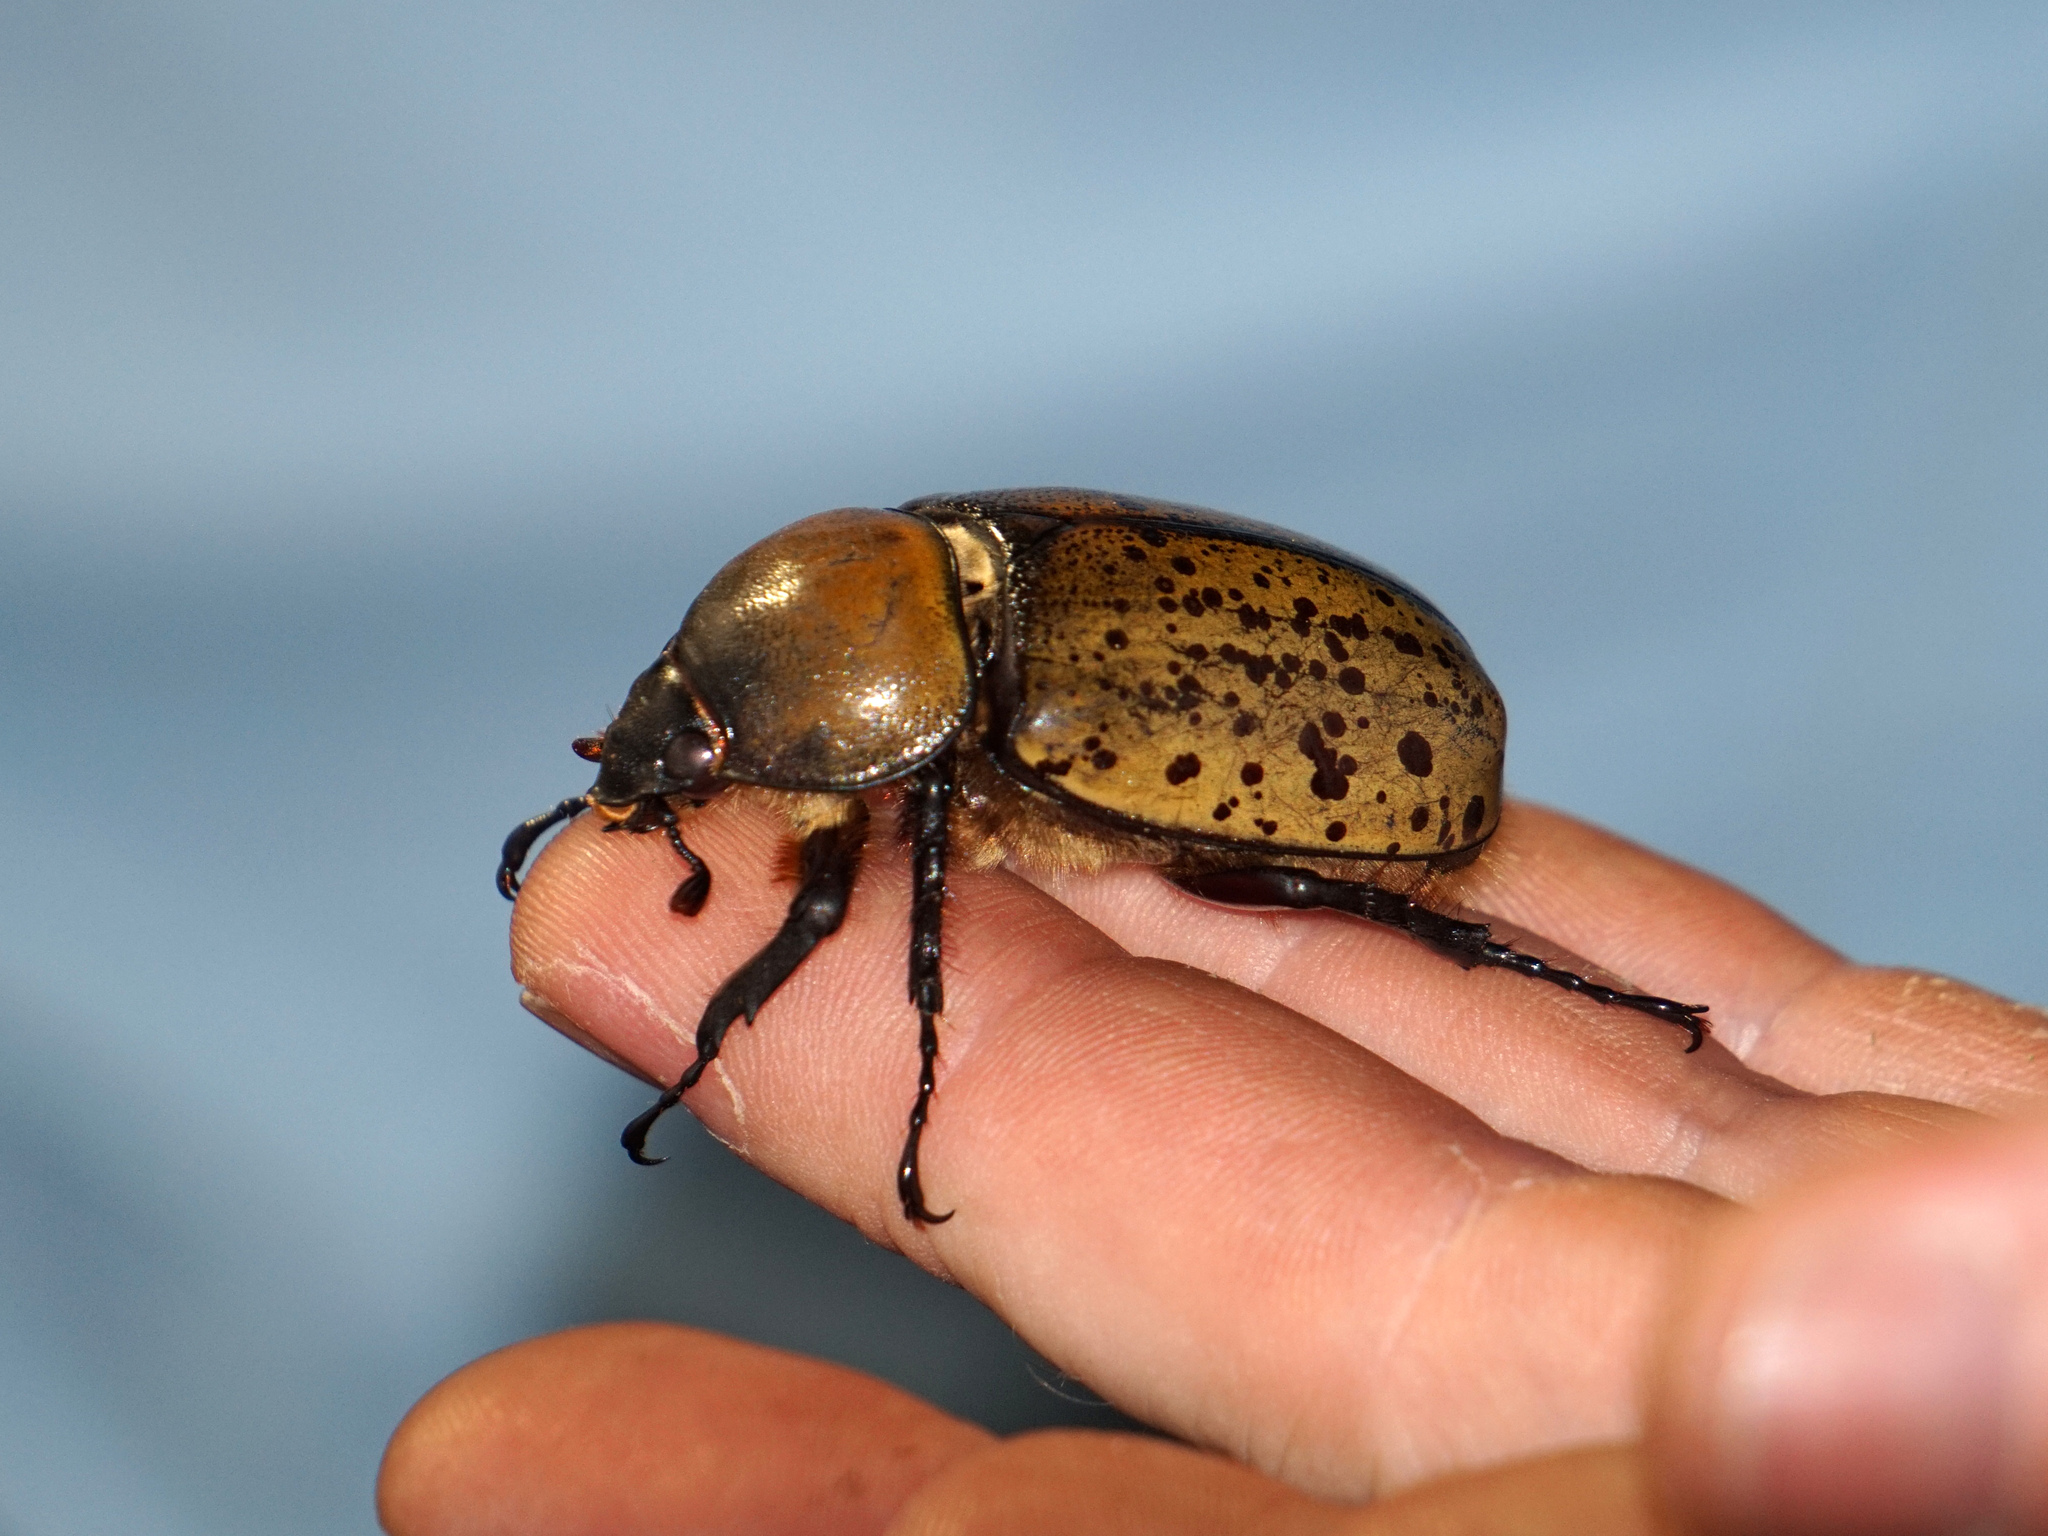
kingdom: Animalia
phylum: Arthropoda
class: Insecta
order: Coleoptera
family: Scarabaeidae
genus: Dynastes
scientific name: Dynastes tityus
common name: Eastern hercules beetle
